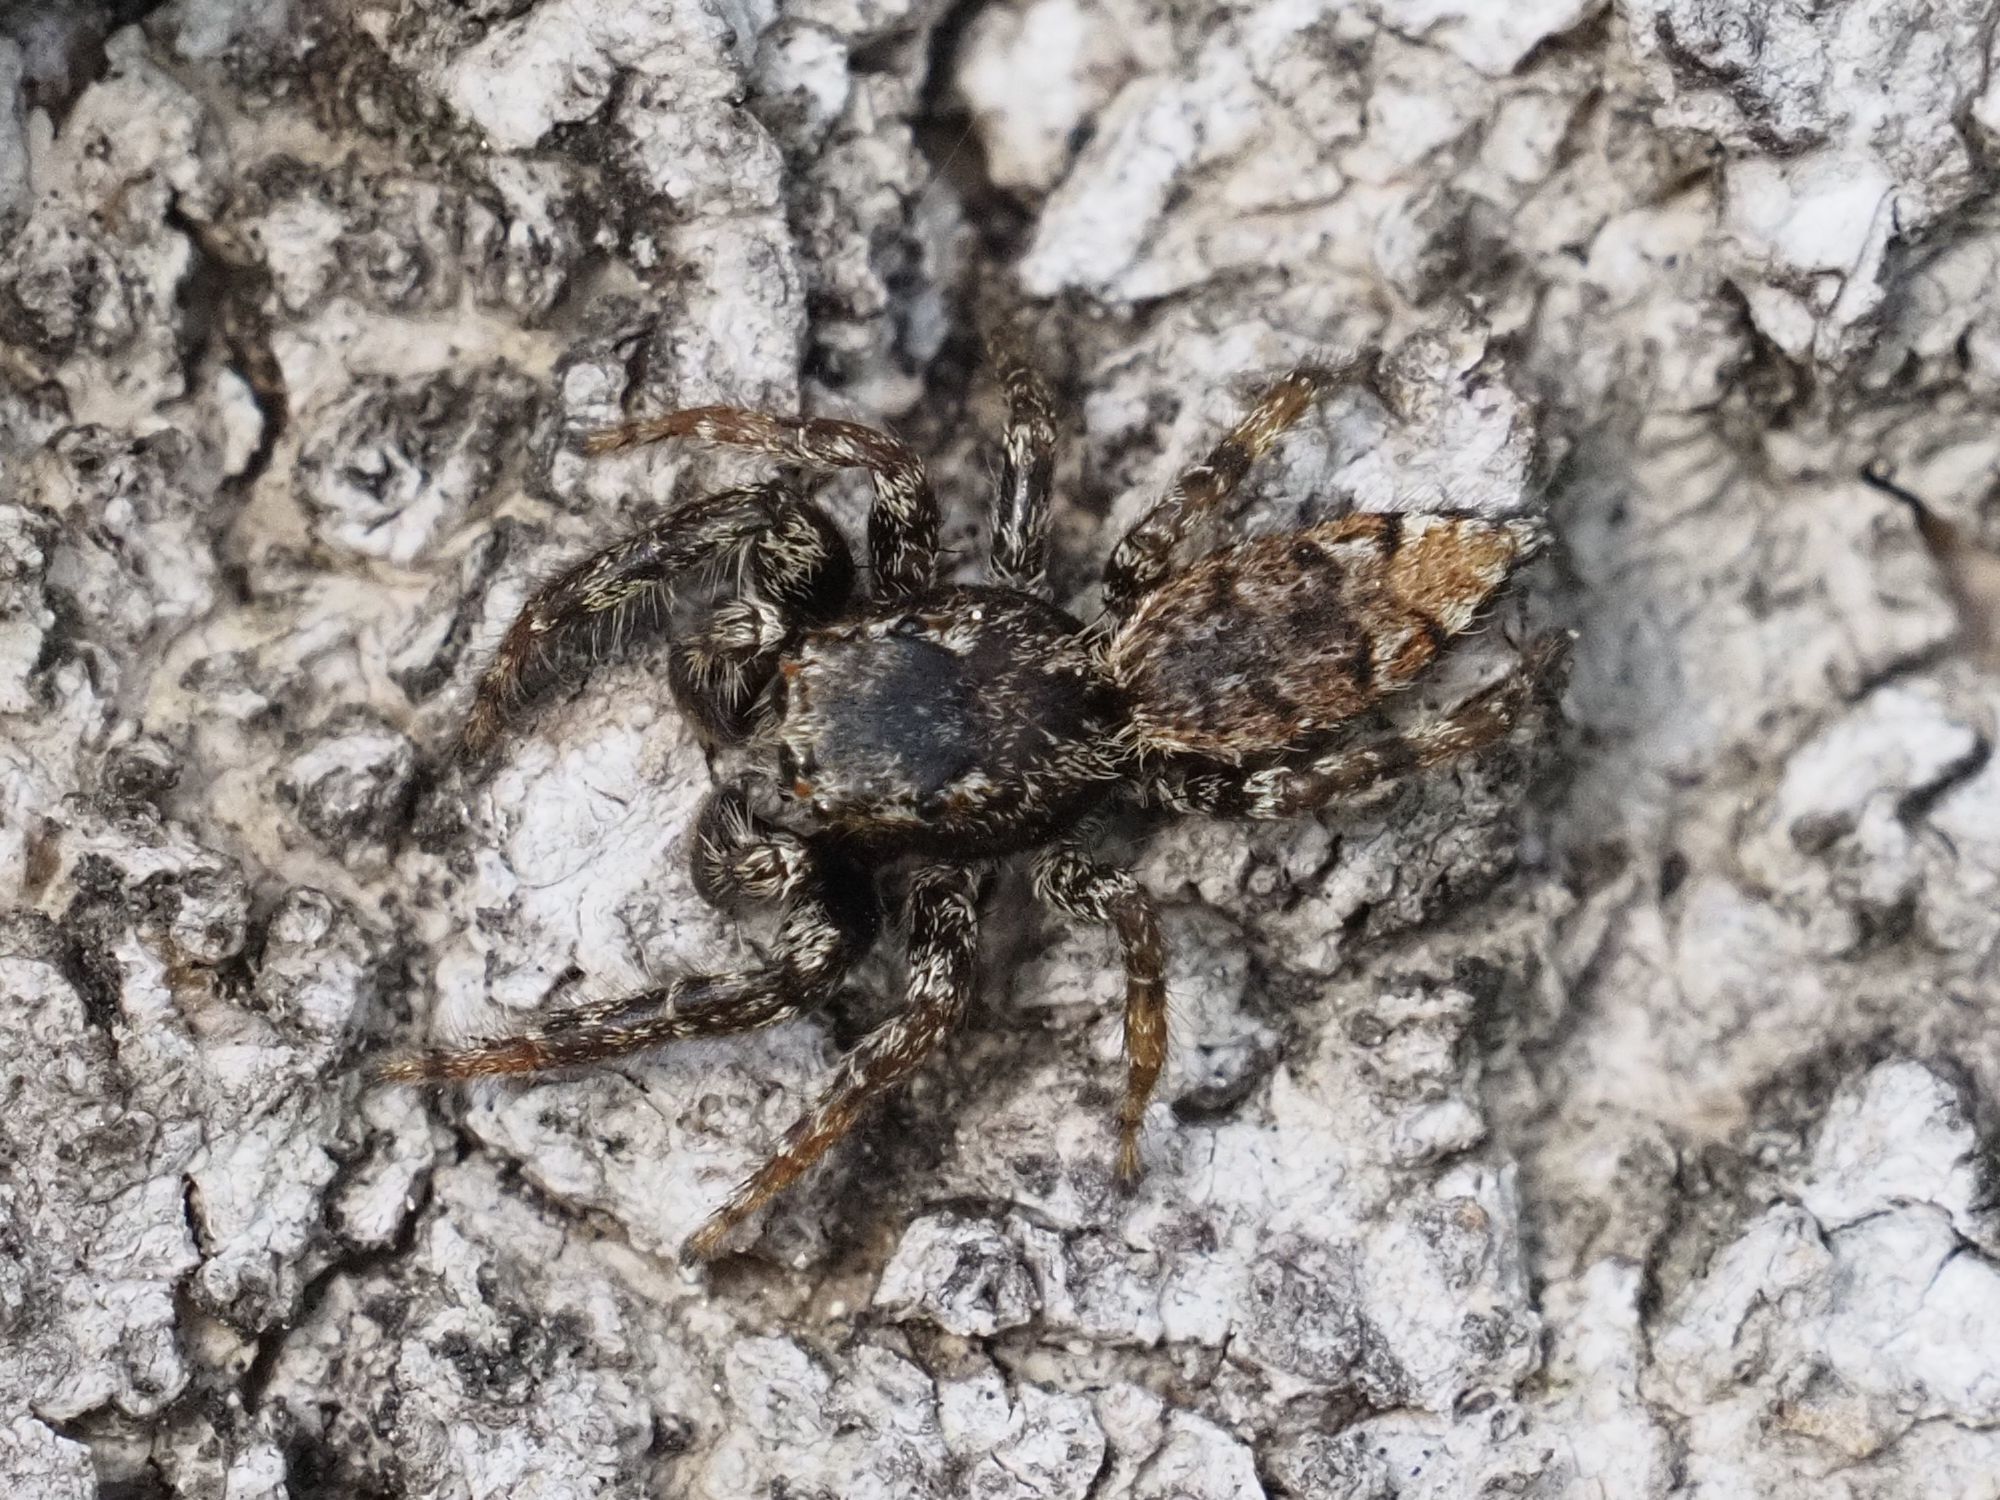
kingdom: Animalia
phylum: Arthropoda
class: Arachnida
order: Araneae
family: Salticidae
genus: Marpissa
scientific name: Marpissa muscosa
